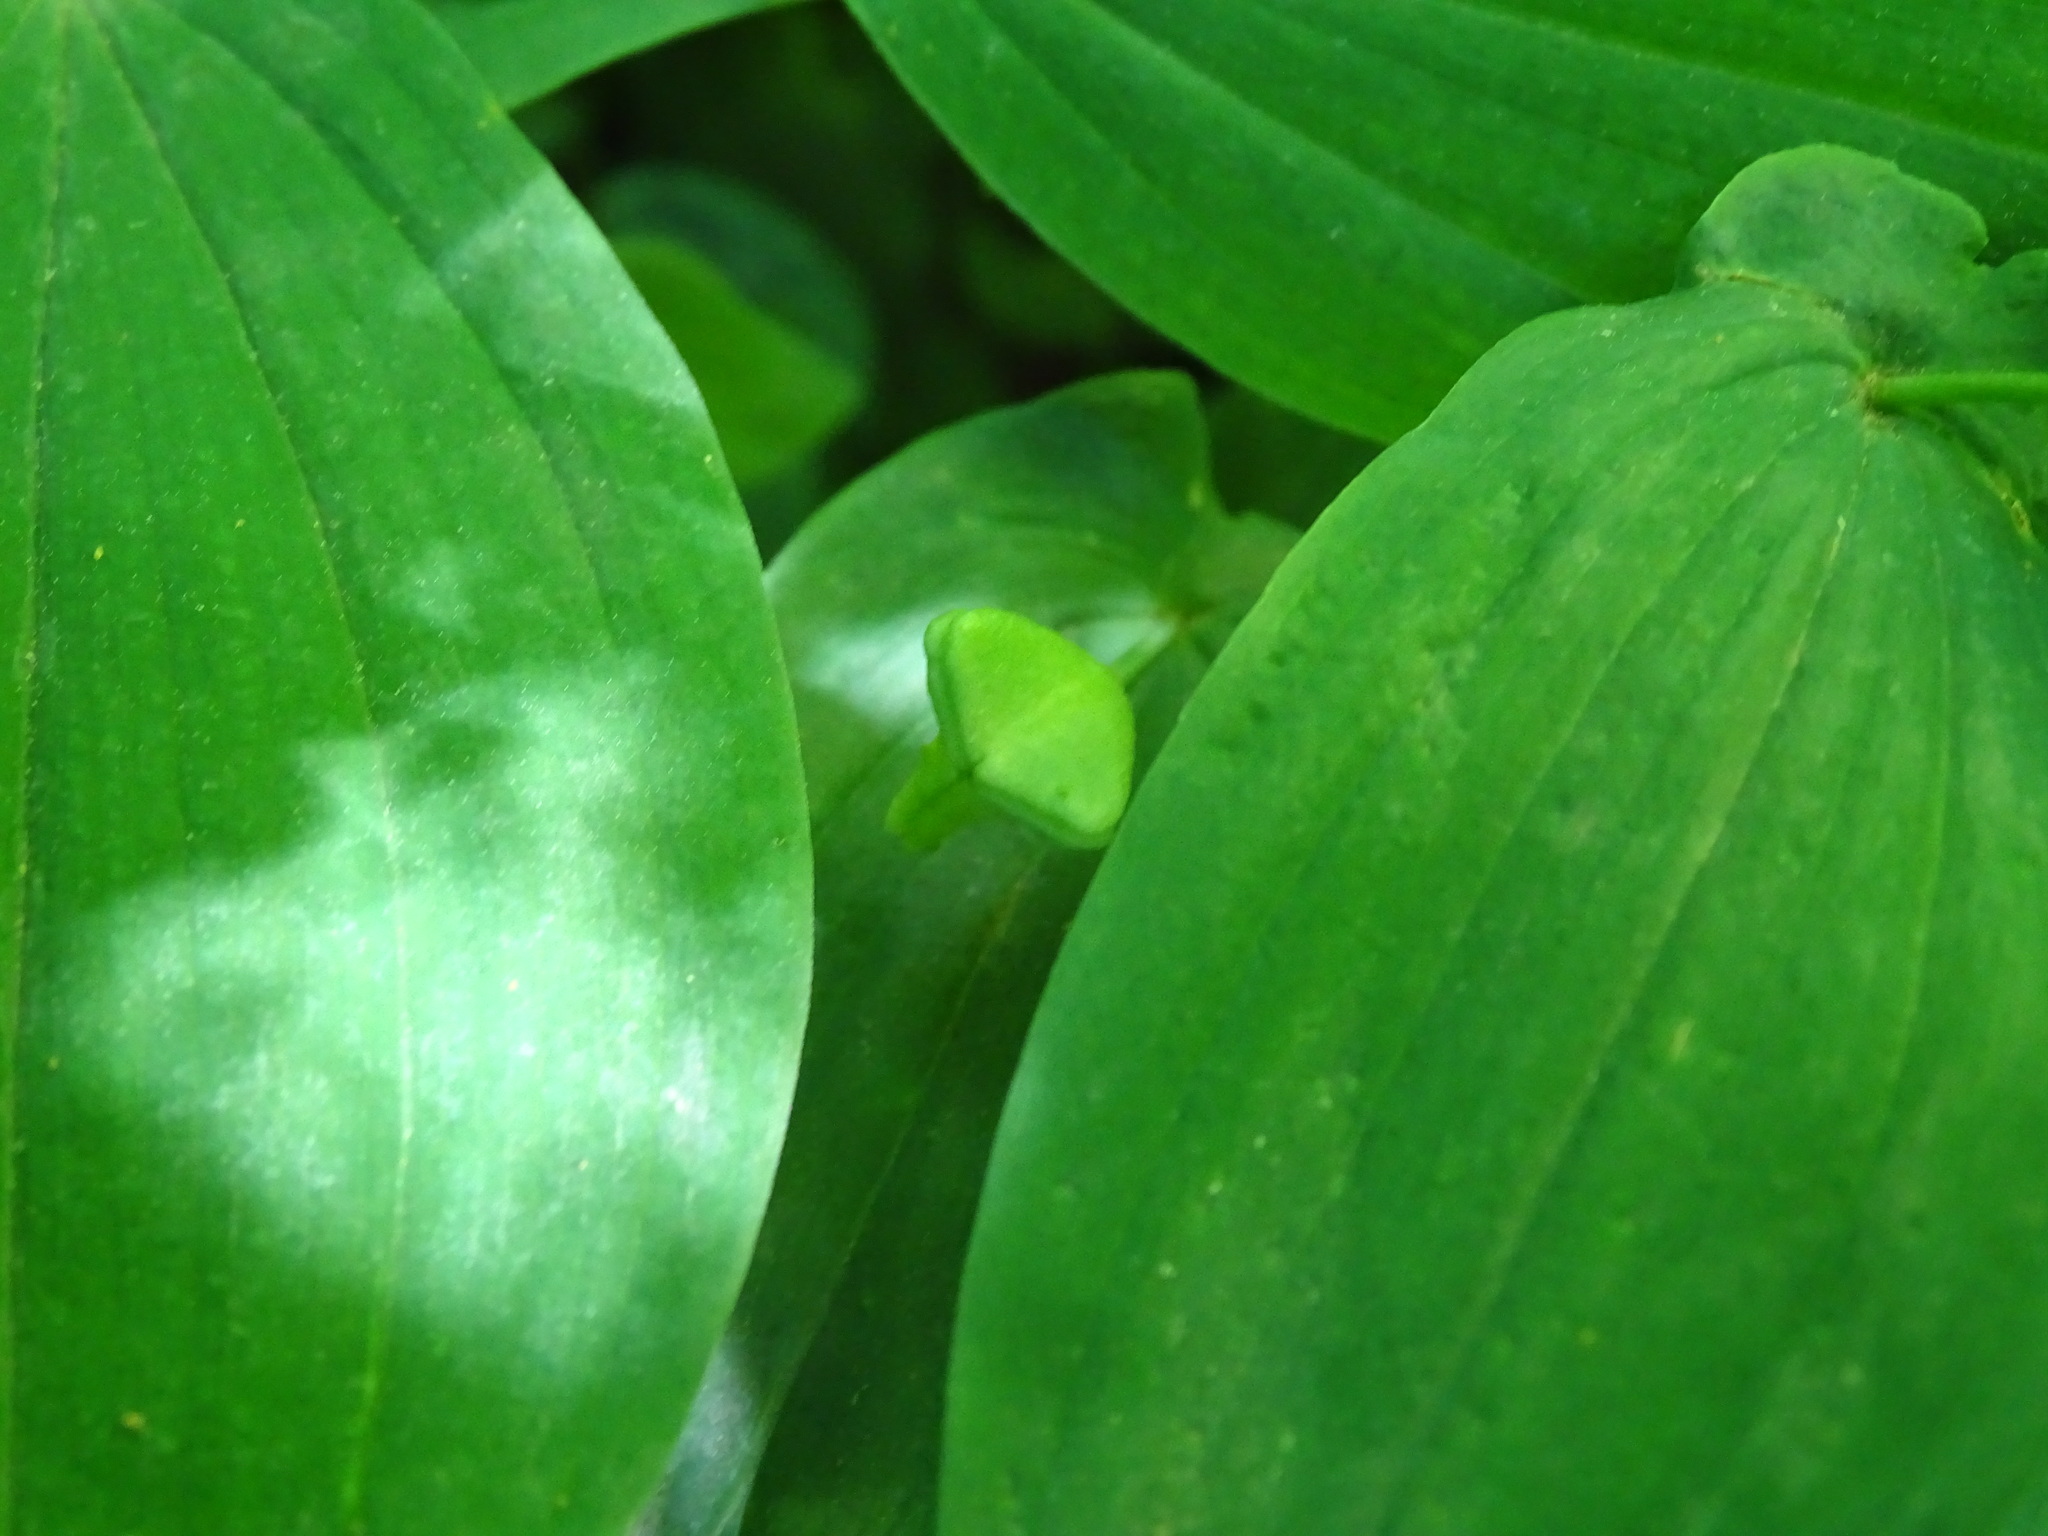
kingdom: Plantae
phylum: Tracheophyta
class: Liliopsida
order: Liliales
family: Colchicaceae
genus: Uvularia
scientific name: Uvularia grandiflora
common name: Bellwort
